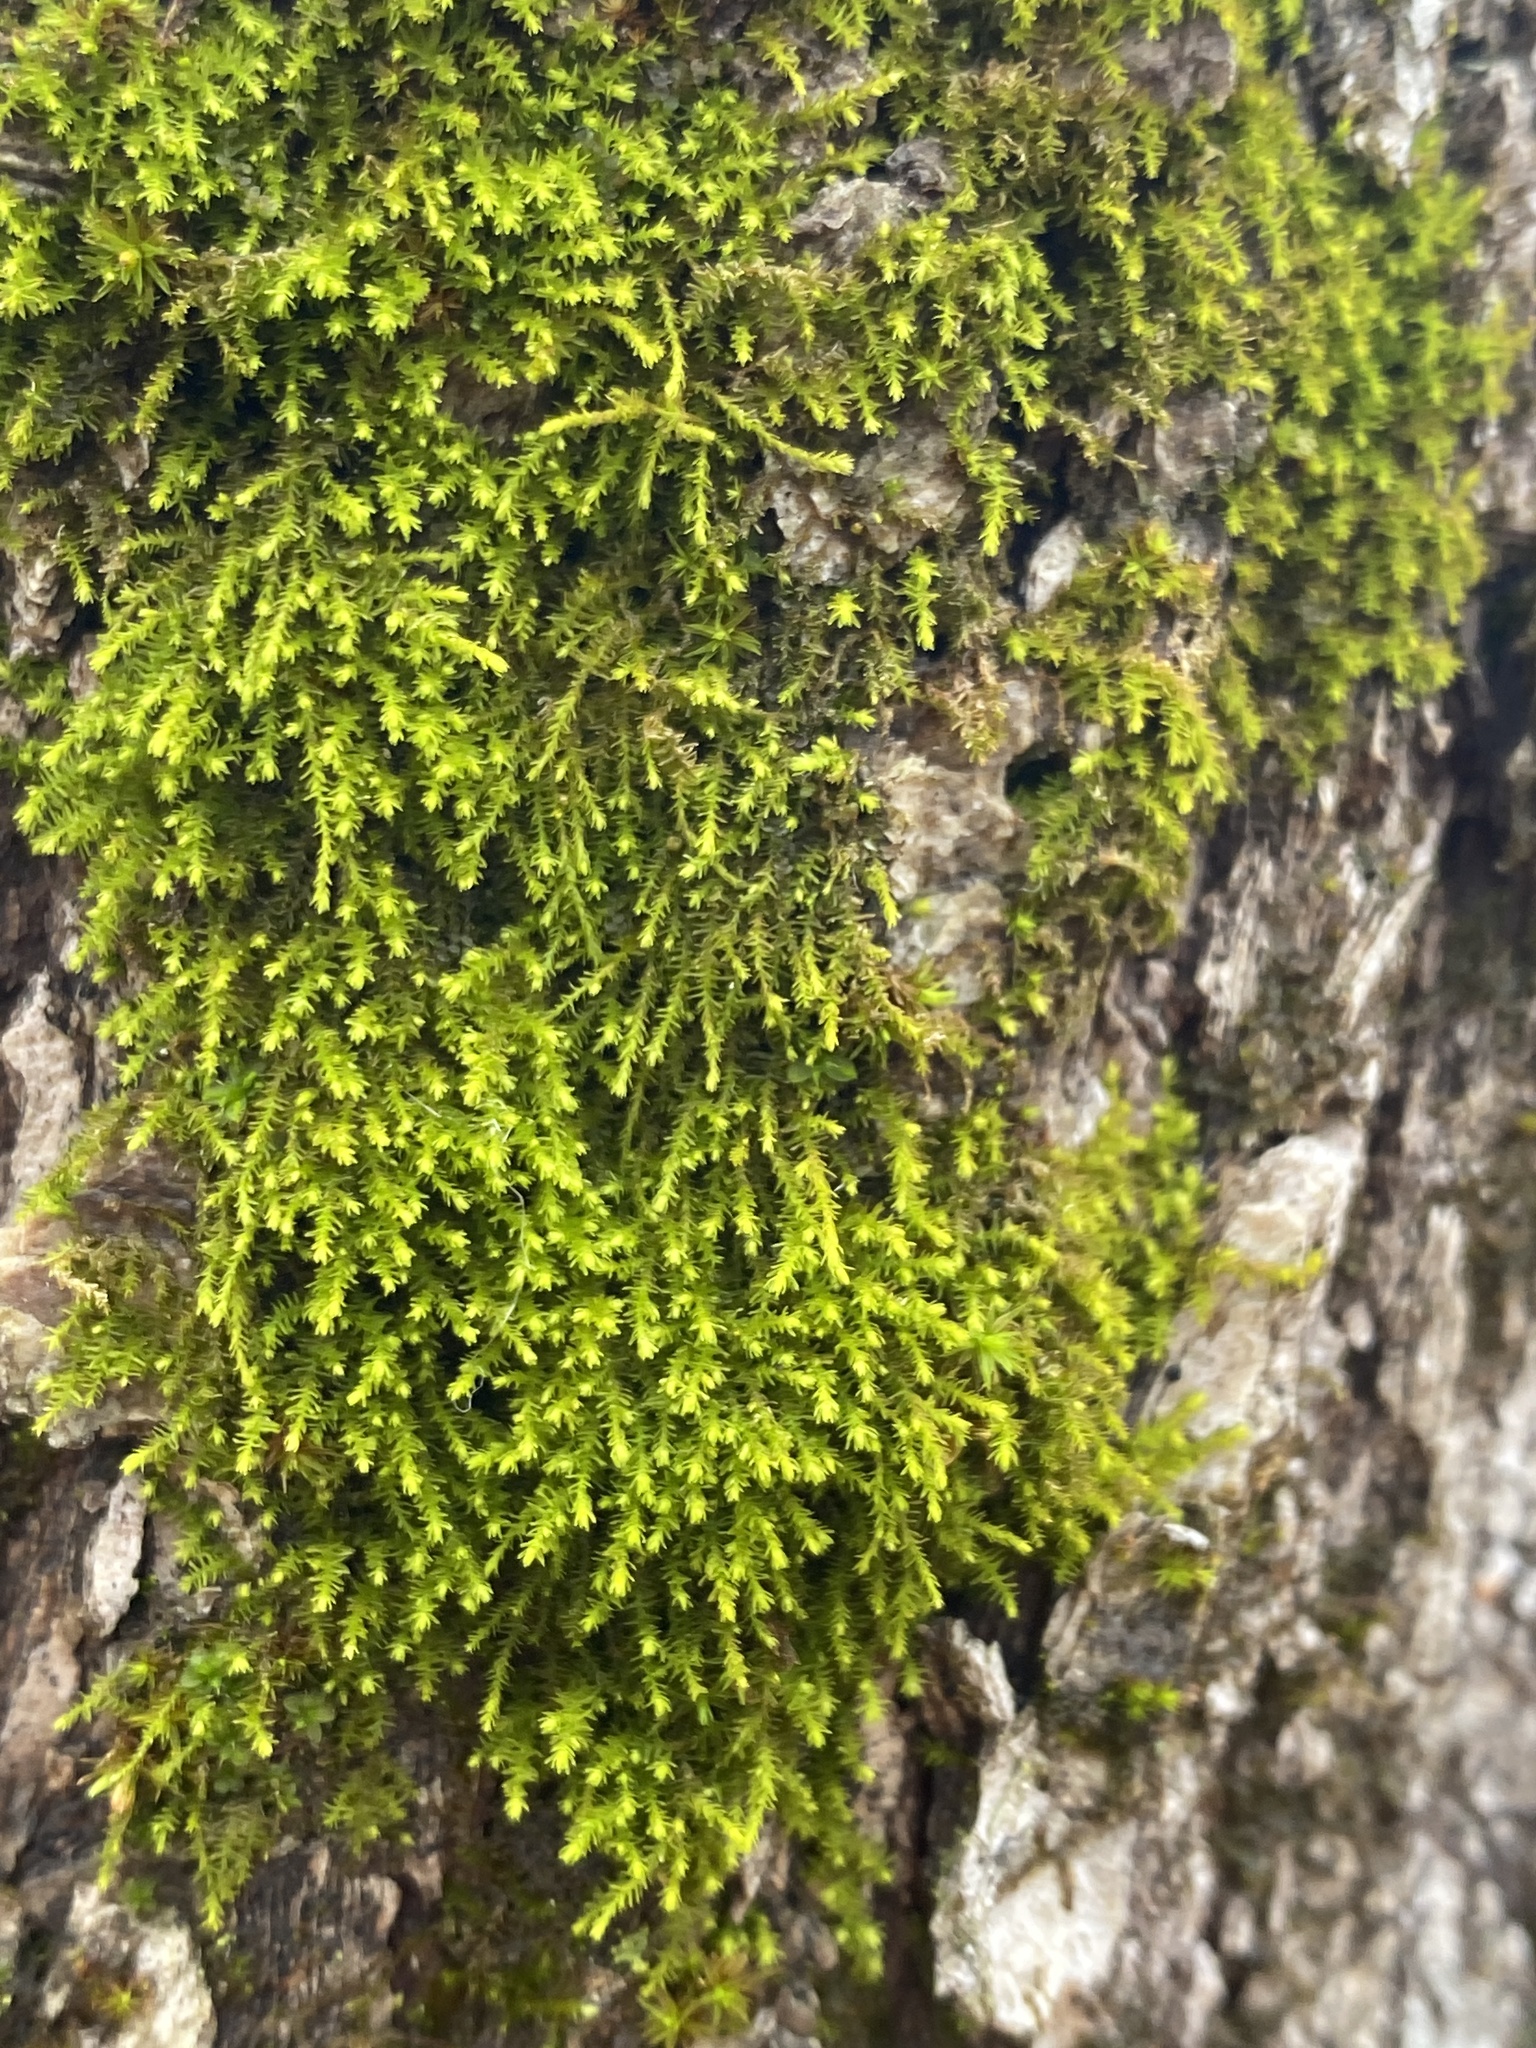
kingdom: Plantae
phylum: Bryophyta
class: Bryopsida
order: Hypnales
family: Anomodontaceae
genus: Haplohymenium
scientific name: Haplohymenium triste
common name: Fragile anomodon
